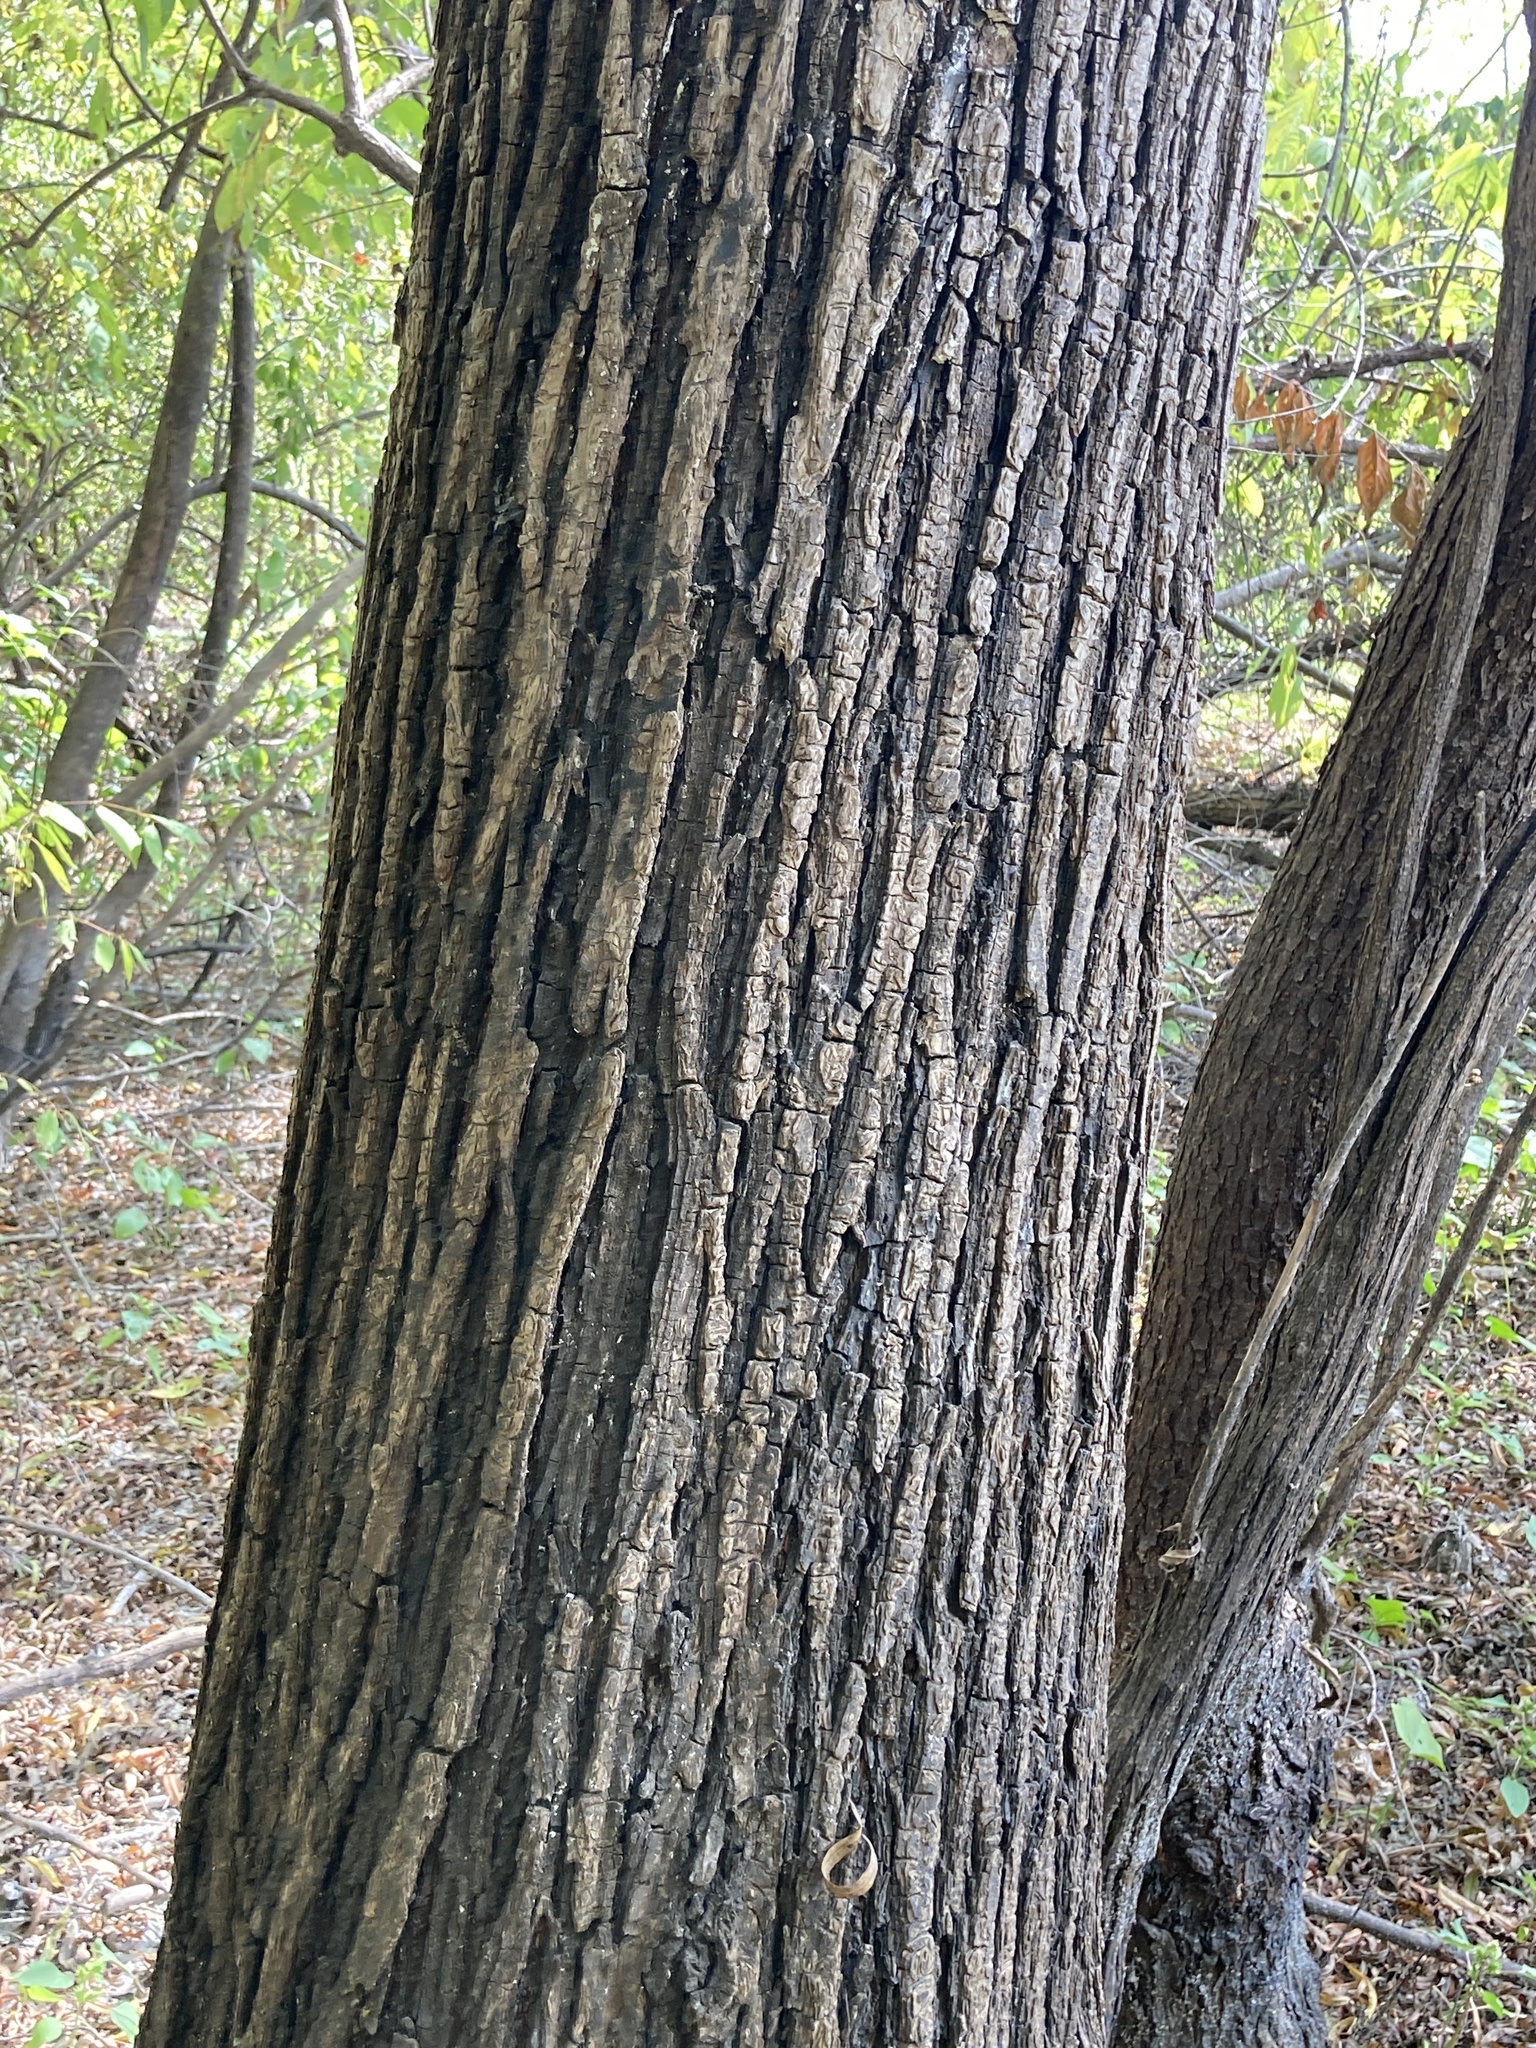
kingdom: Plantae
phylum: Tracheophyta
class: Magnoliopsida
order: Malpighiales
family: Salicaceae
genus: Salix
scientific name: Salix nigra
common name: Black willow
